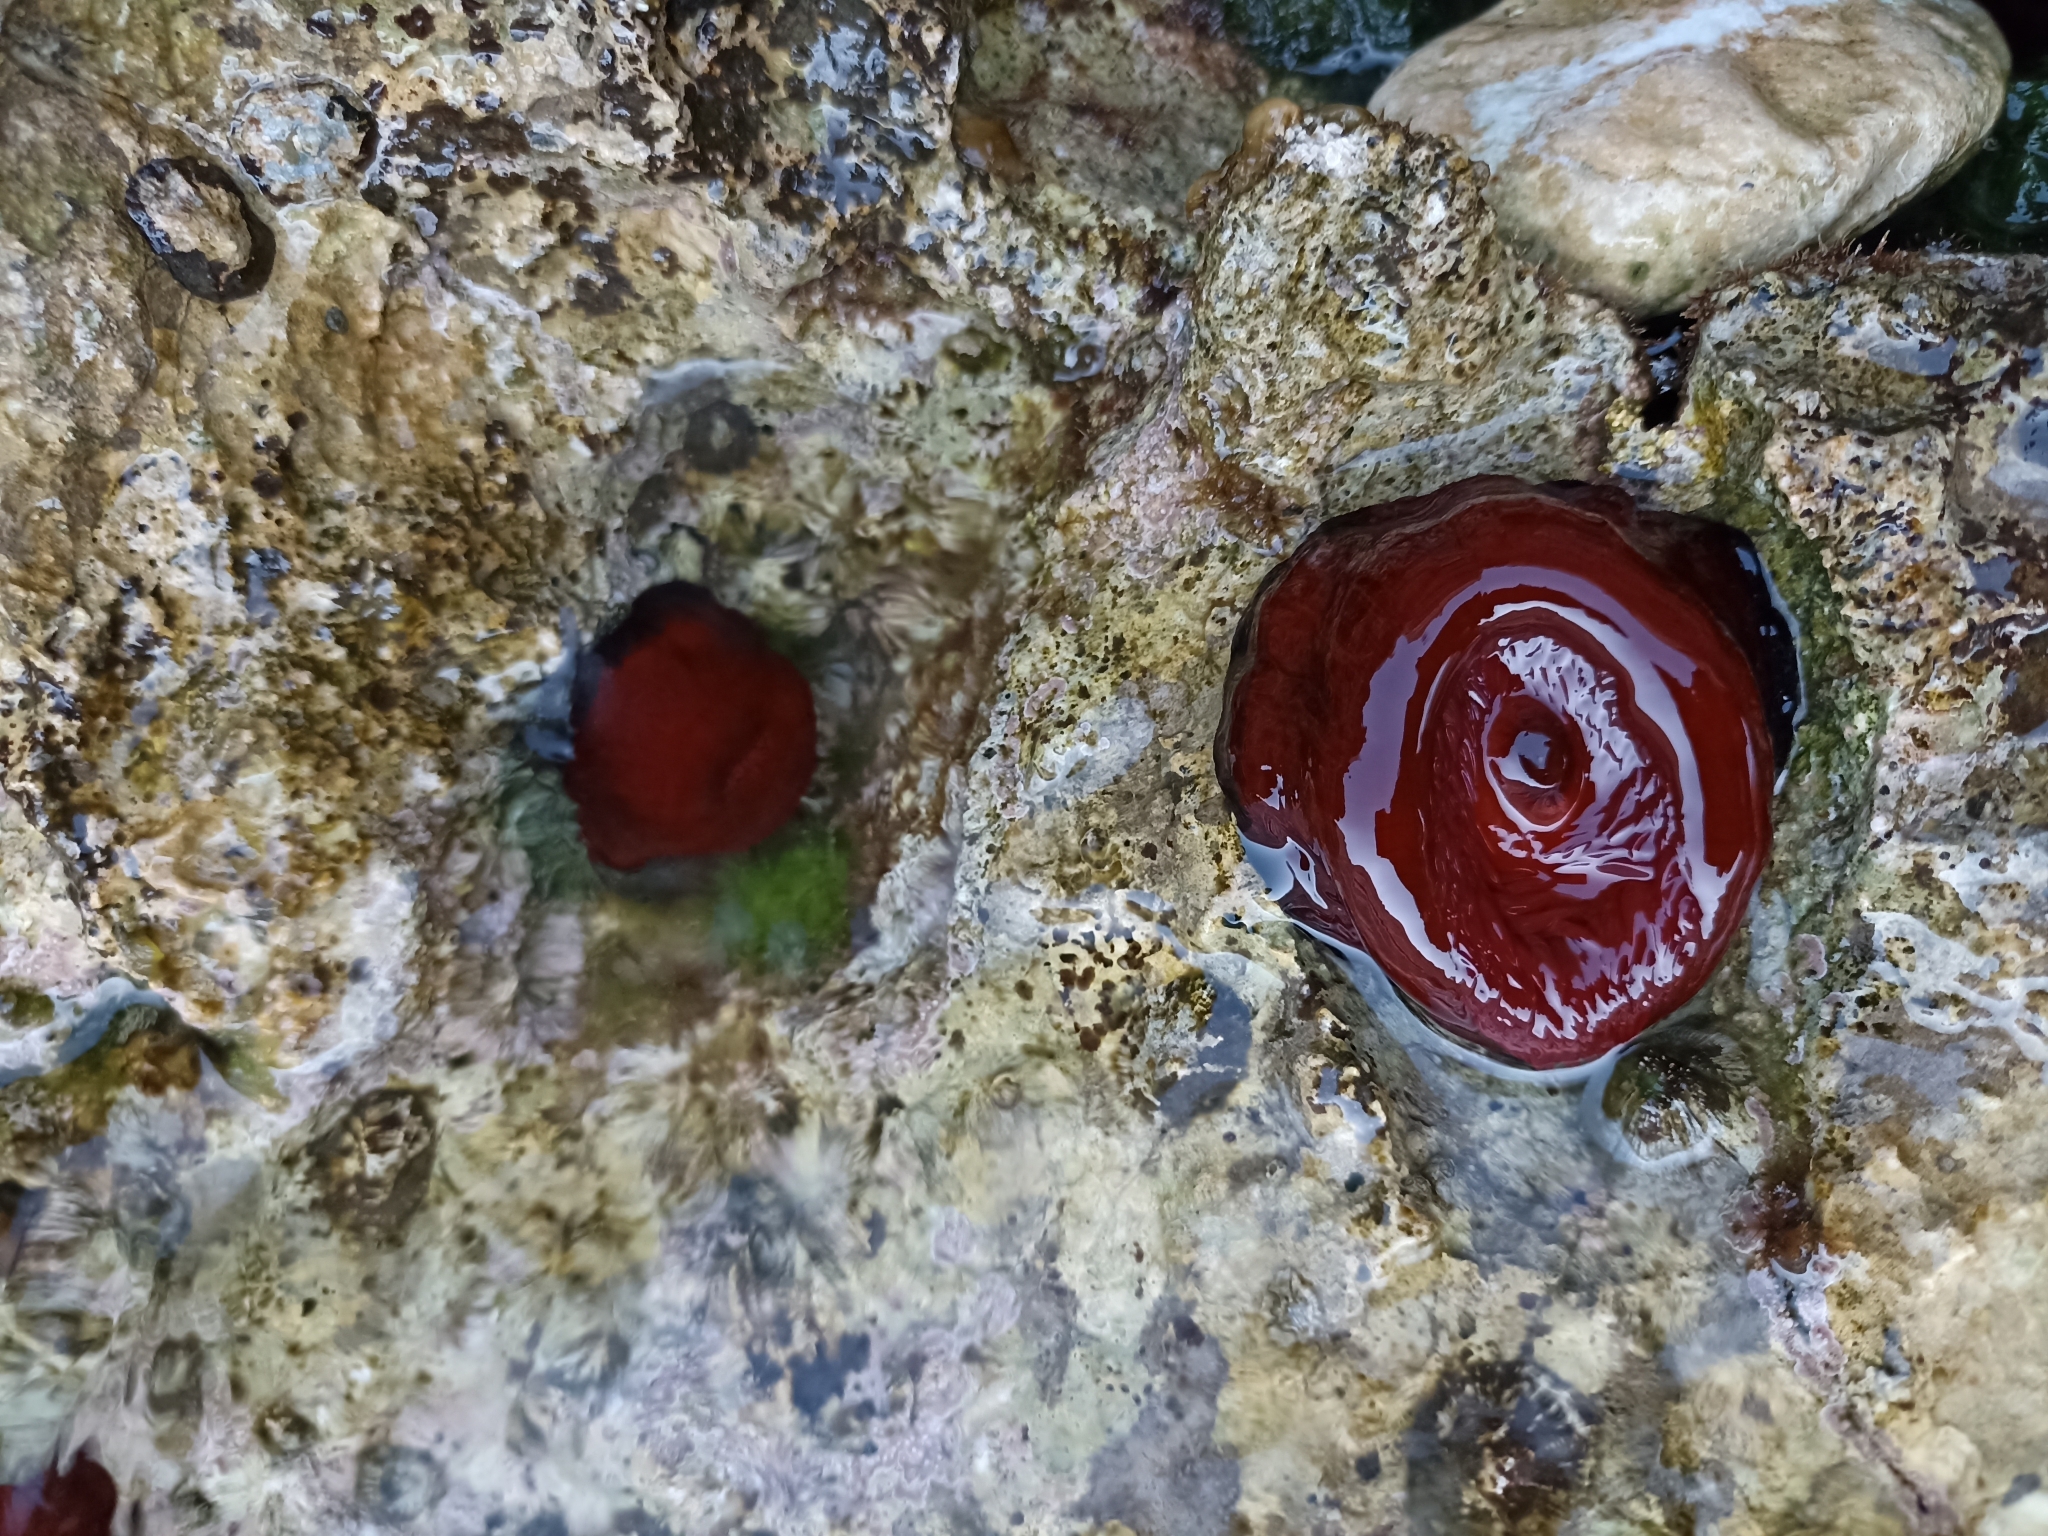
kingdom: Animalia
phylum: Cnidaria
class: Anthozoa
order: Actiniaria
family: Actiniidae
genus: Actinia
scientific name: Actinia mediterranea
